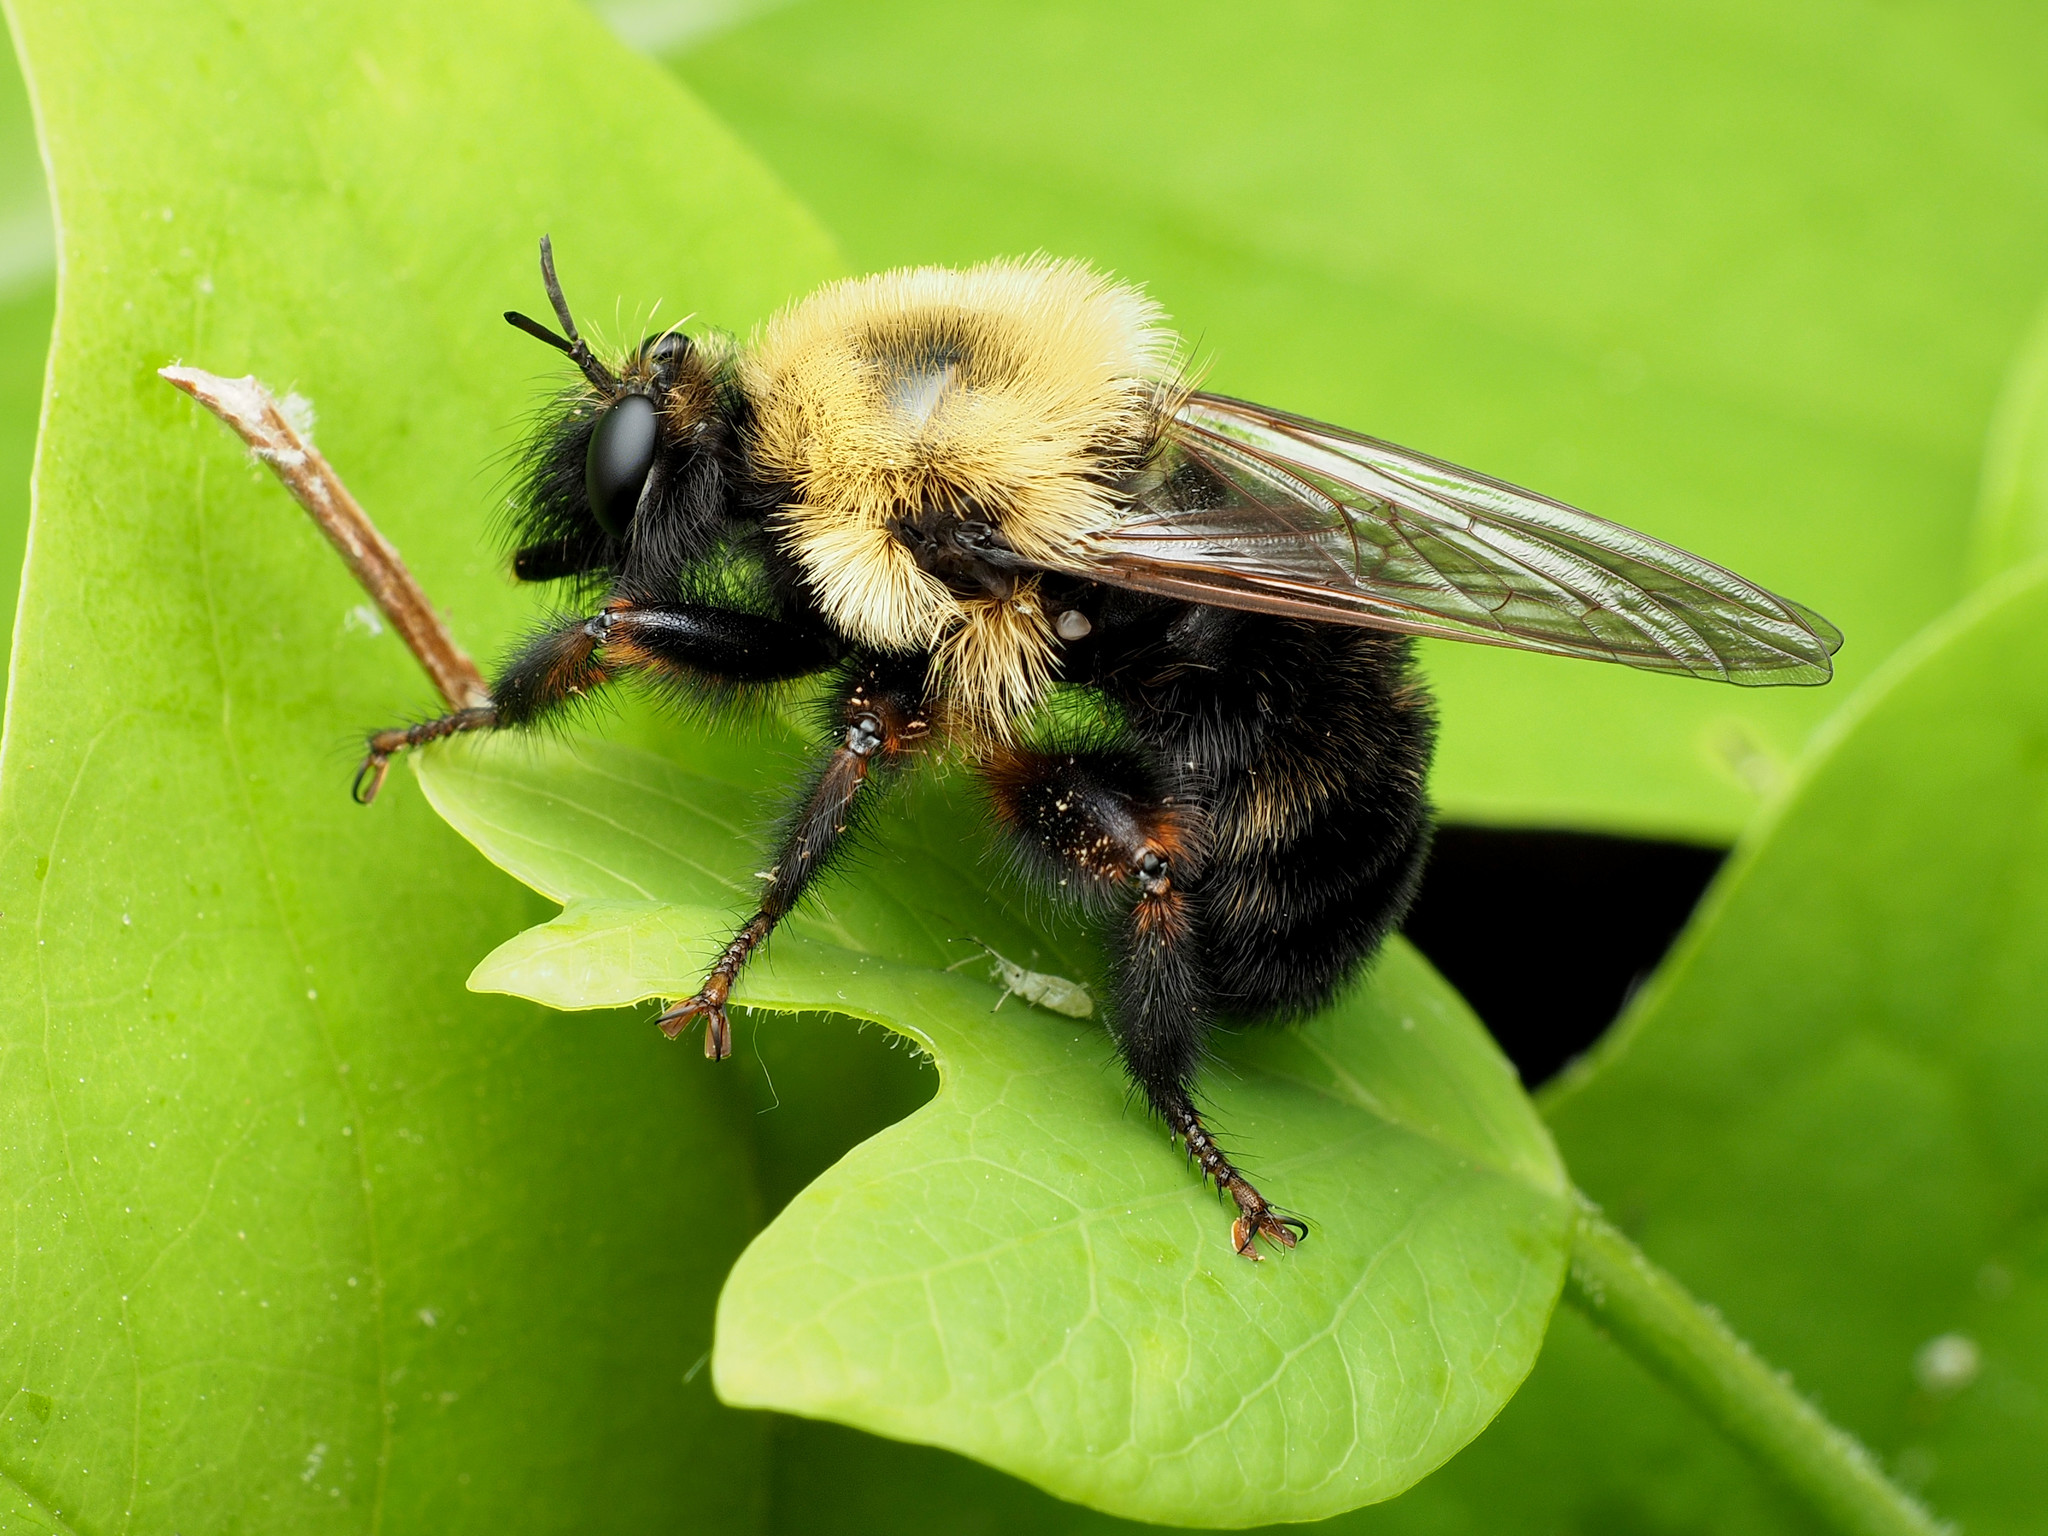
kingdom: Animalia
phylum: Arthropoda
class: Insecta
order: Diptera
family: Asilidae
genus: Laphria
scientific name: Laphria thoracica
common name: Bumble bee mimic robber fly
